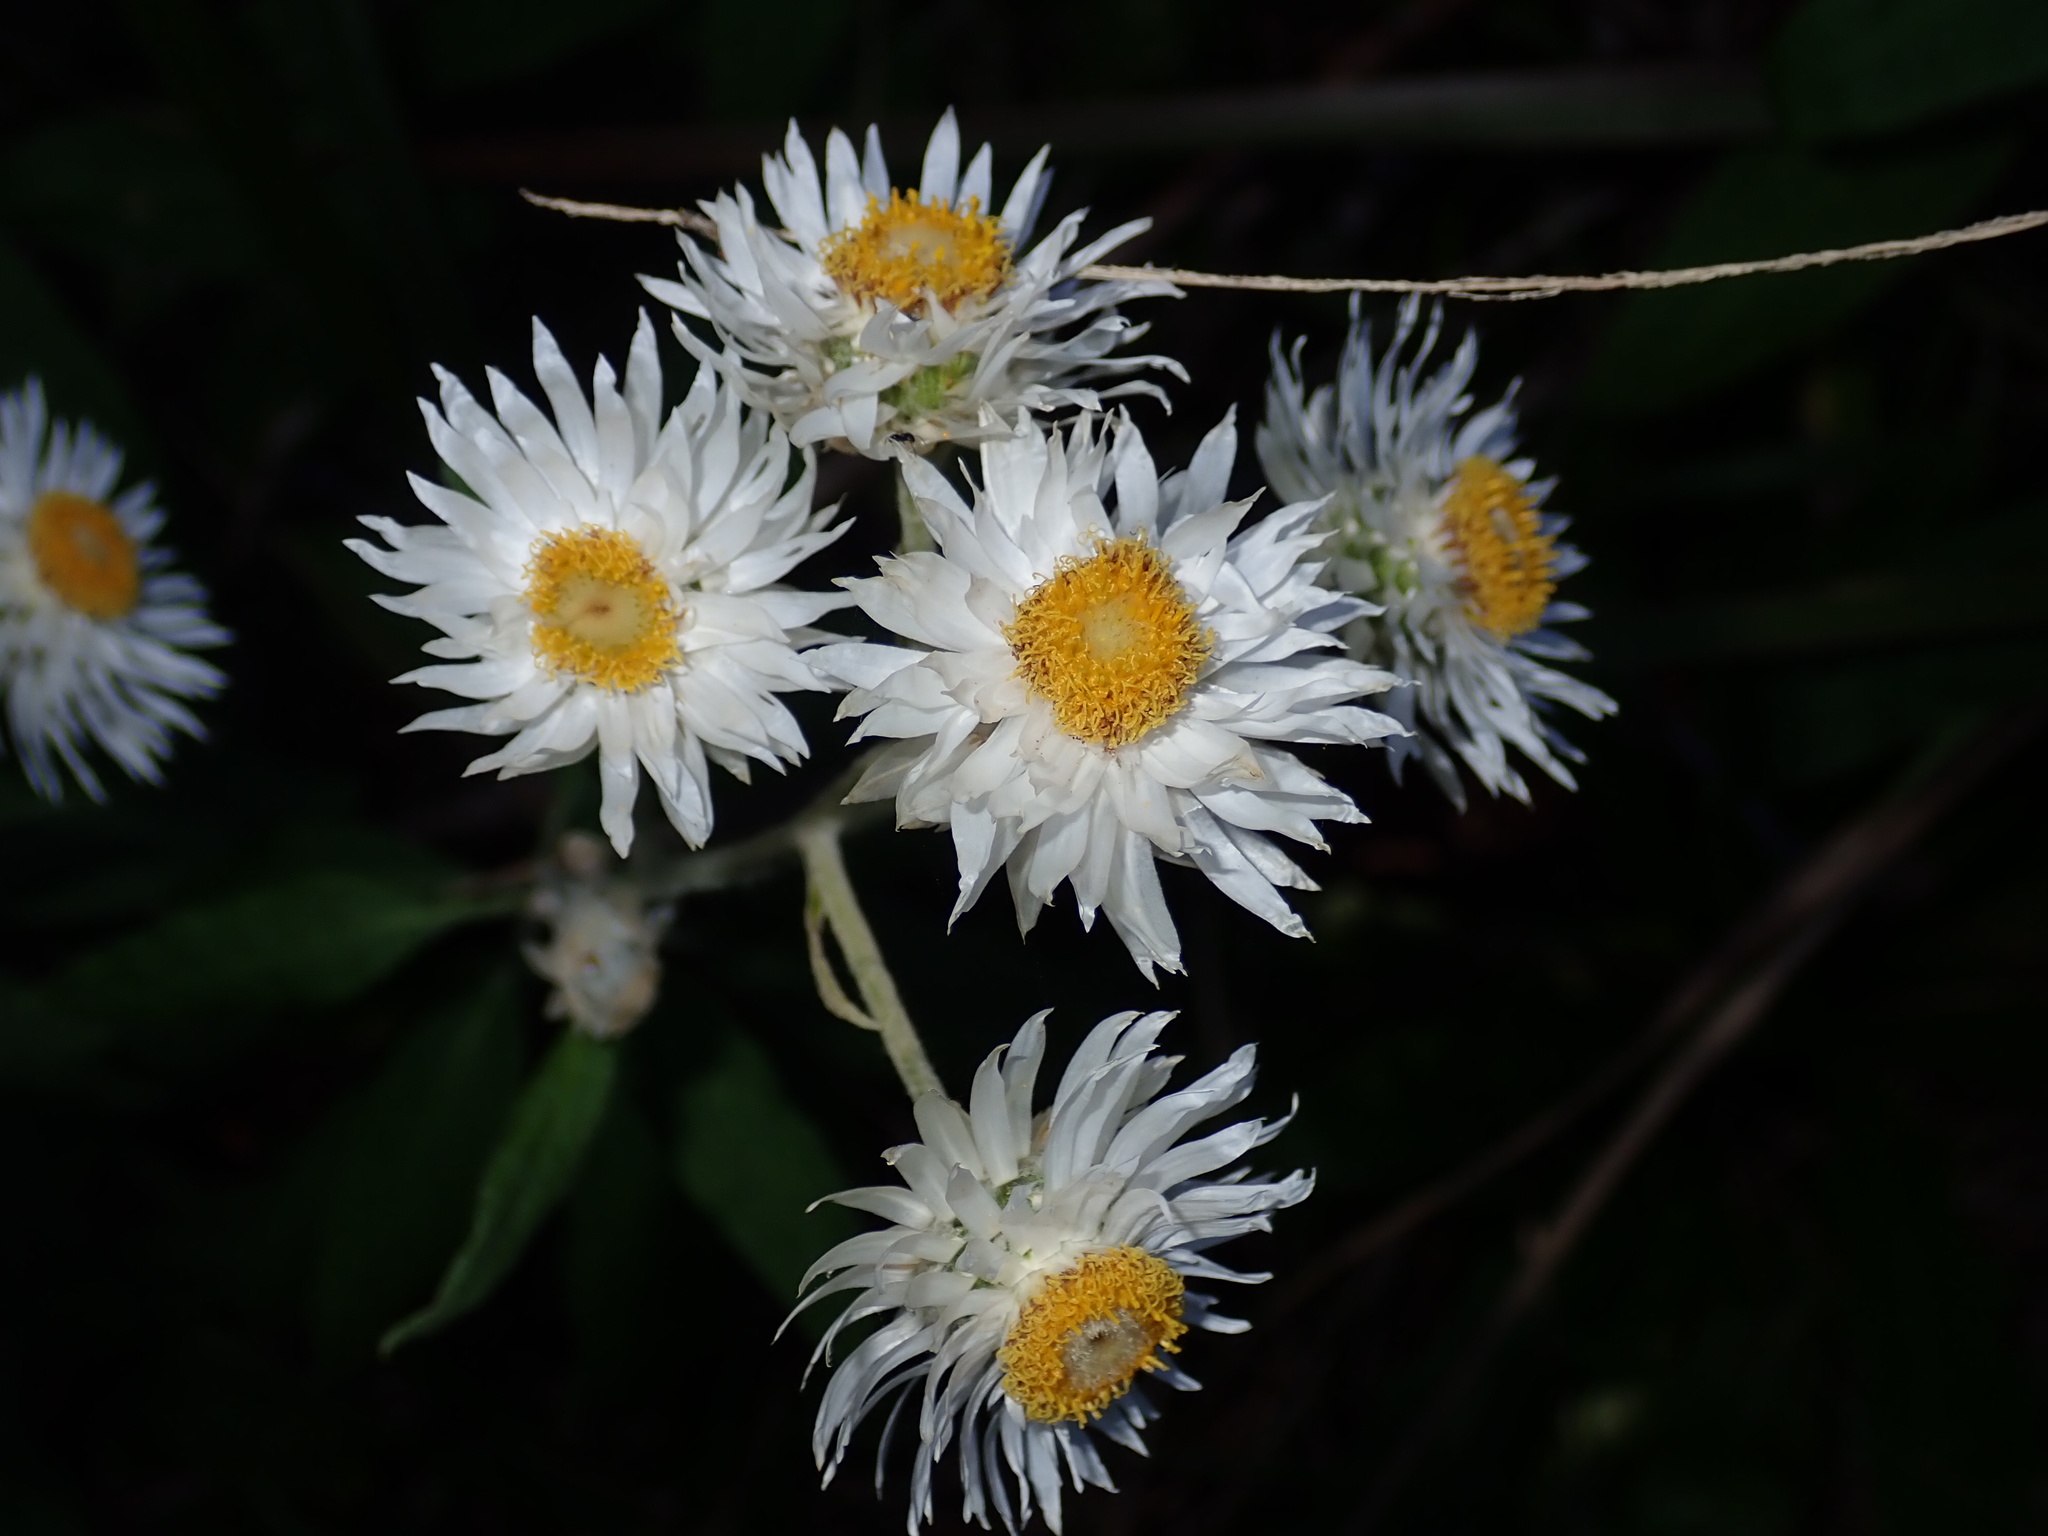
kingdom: Plantae
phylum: Tracheophyta
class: Magnoliopsida
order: Asterales
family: Asteraceae
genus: Leucozoma
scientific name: Leucozoma elatum
